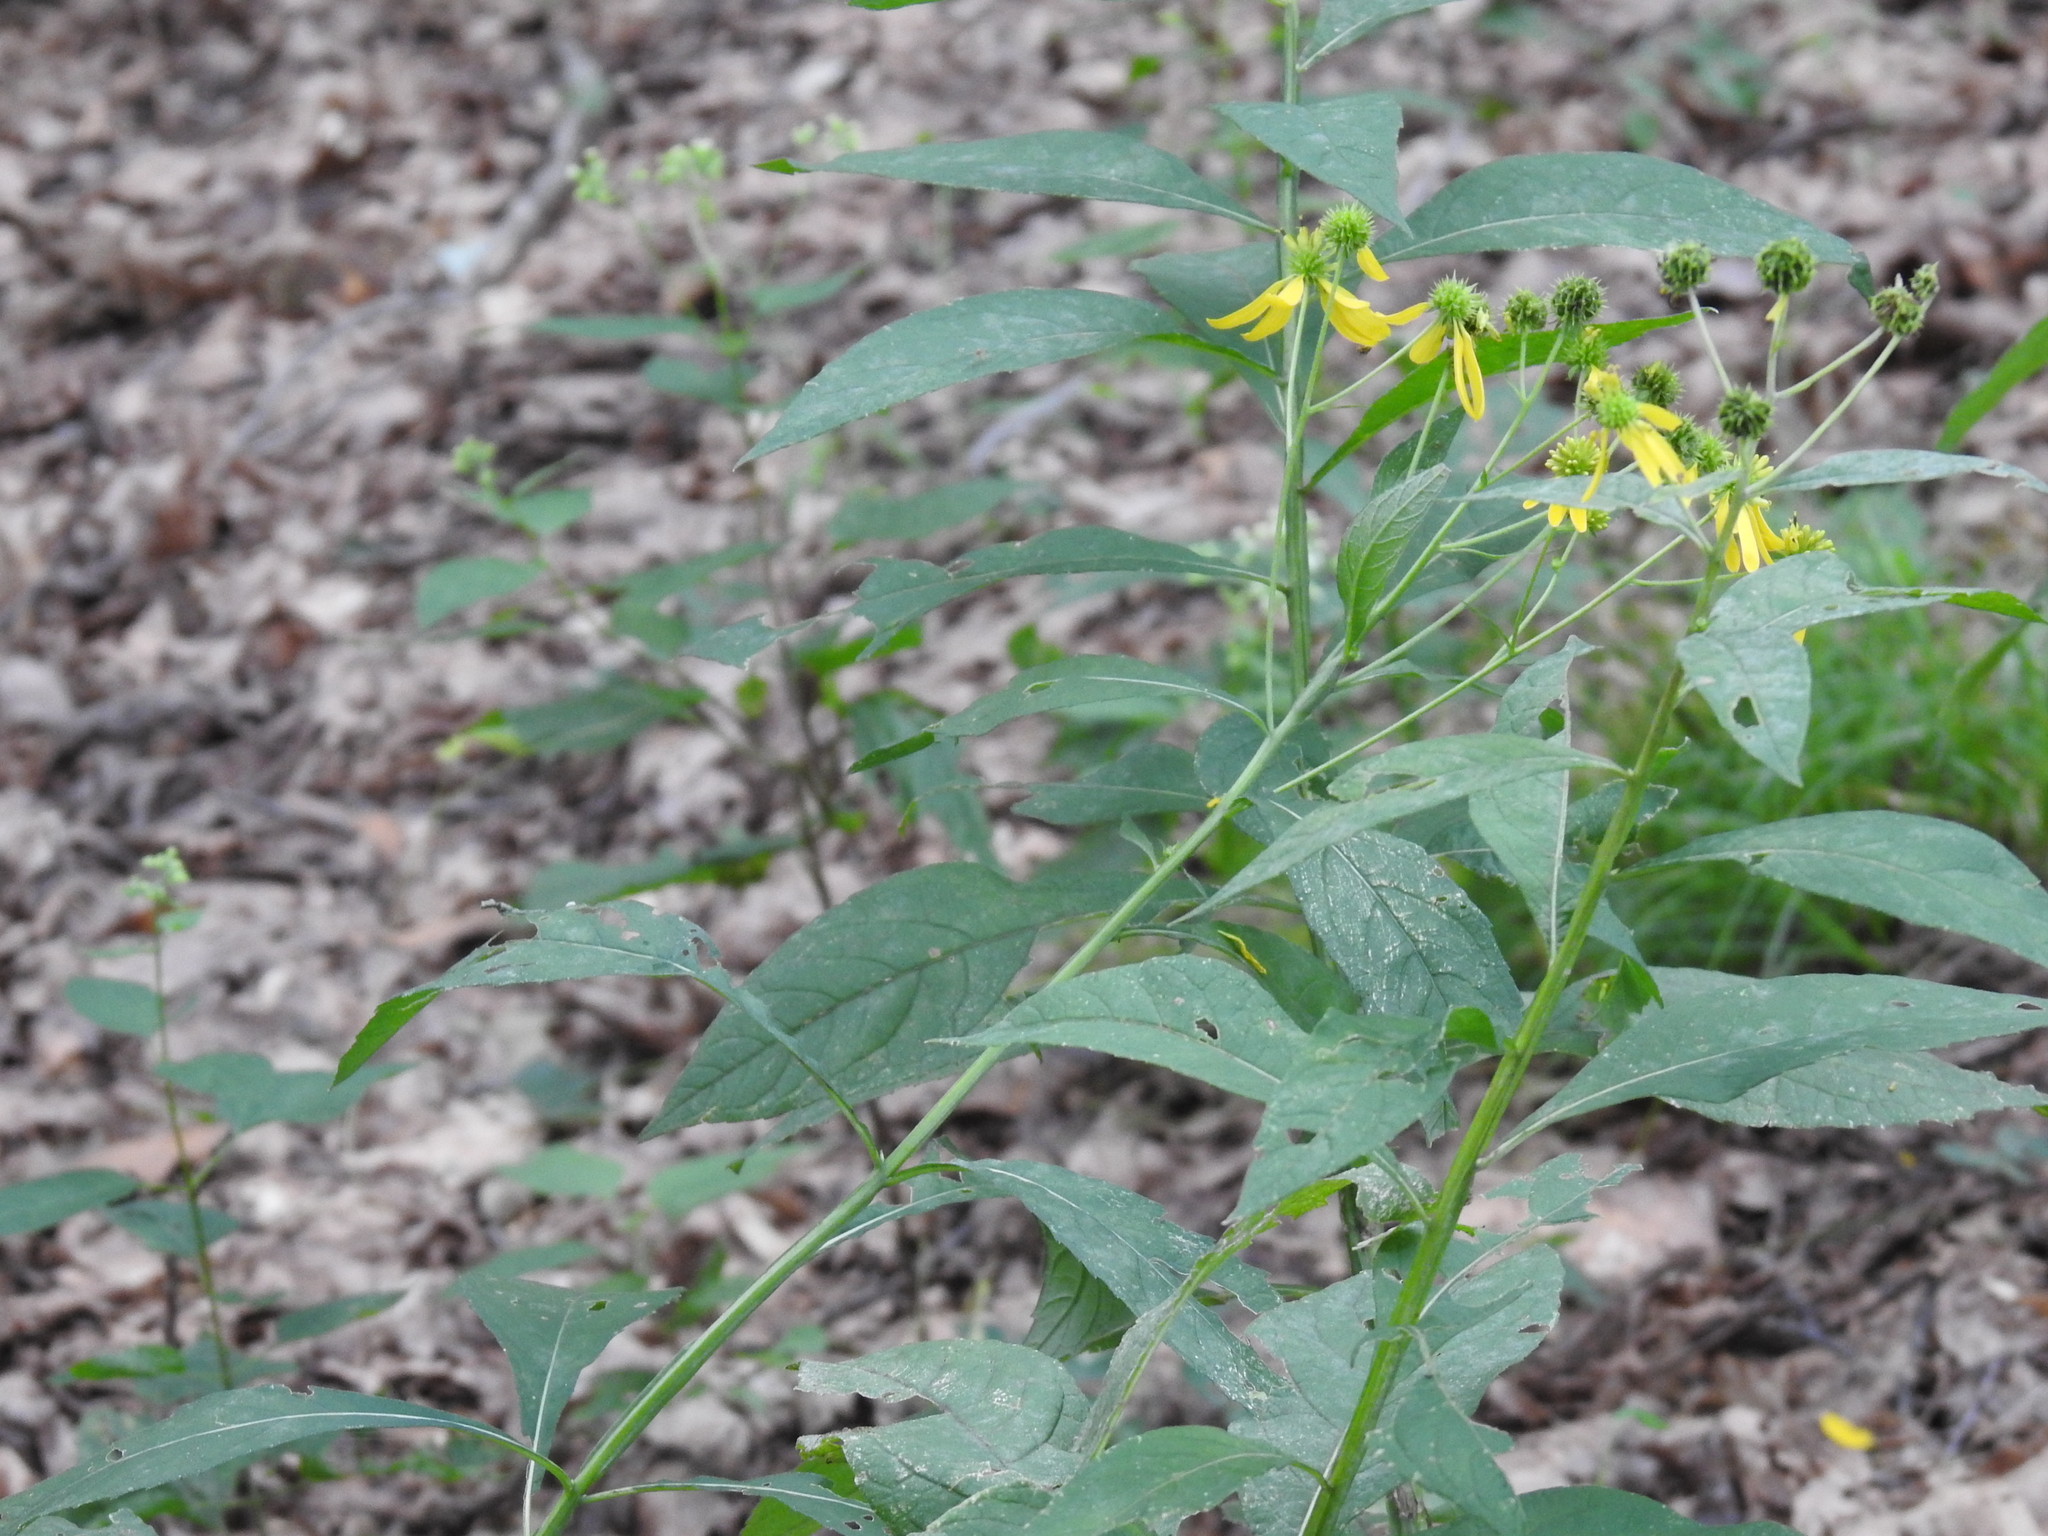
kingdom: Plantae
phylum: Tracheophyta
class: Magnoliopsida
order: Asterales
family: Asteraceae
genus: Verbesina
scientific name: Verbesina alternifolia
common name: Wingstem
